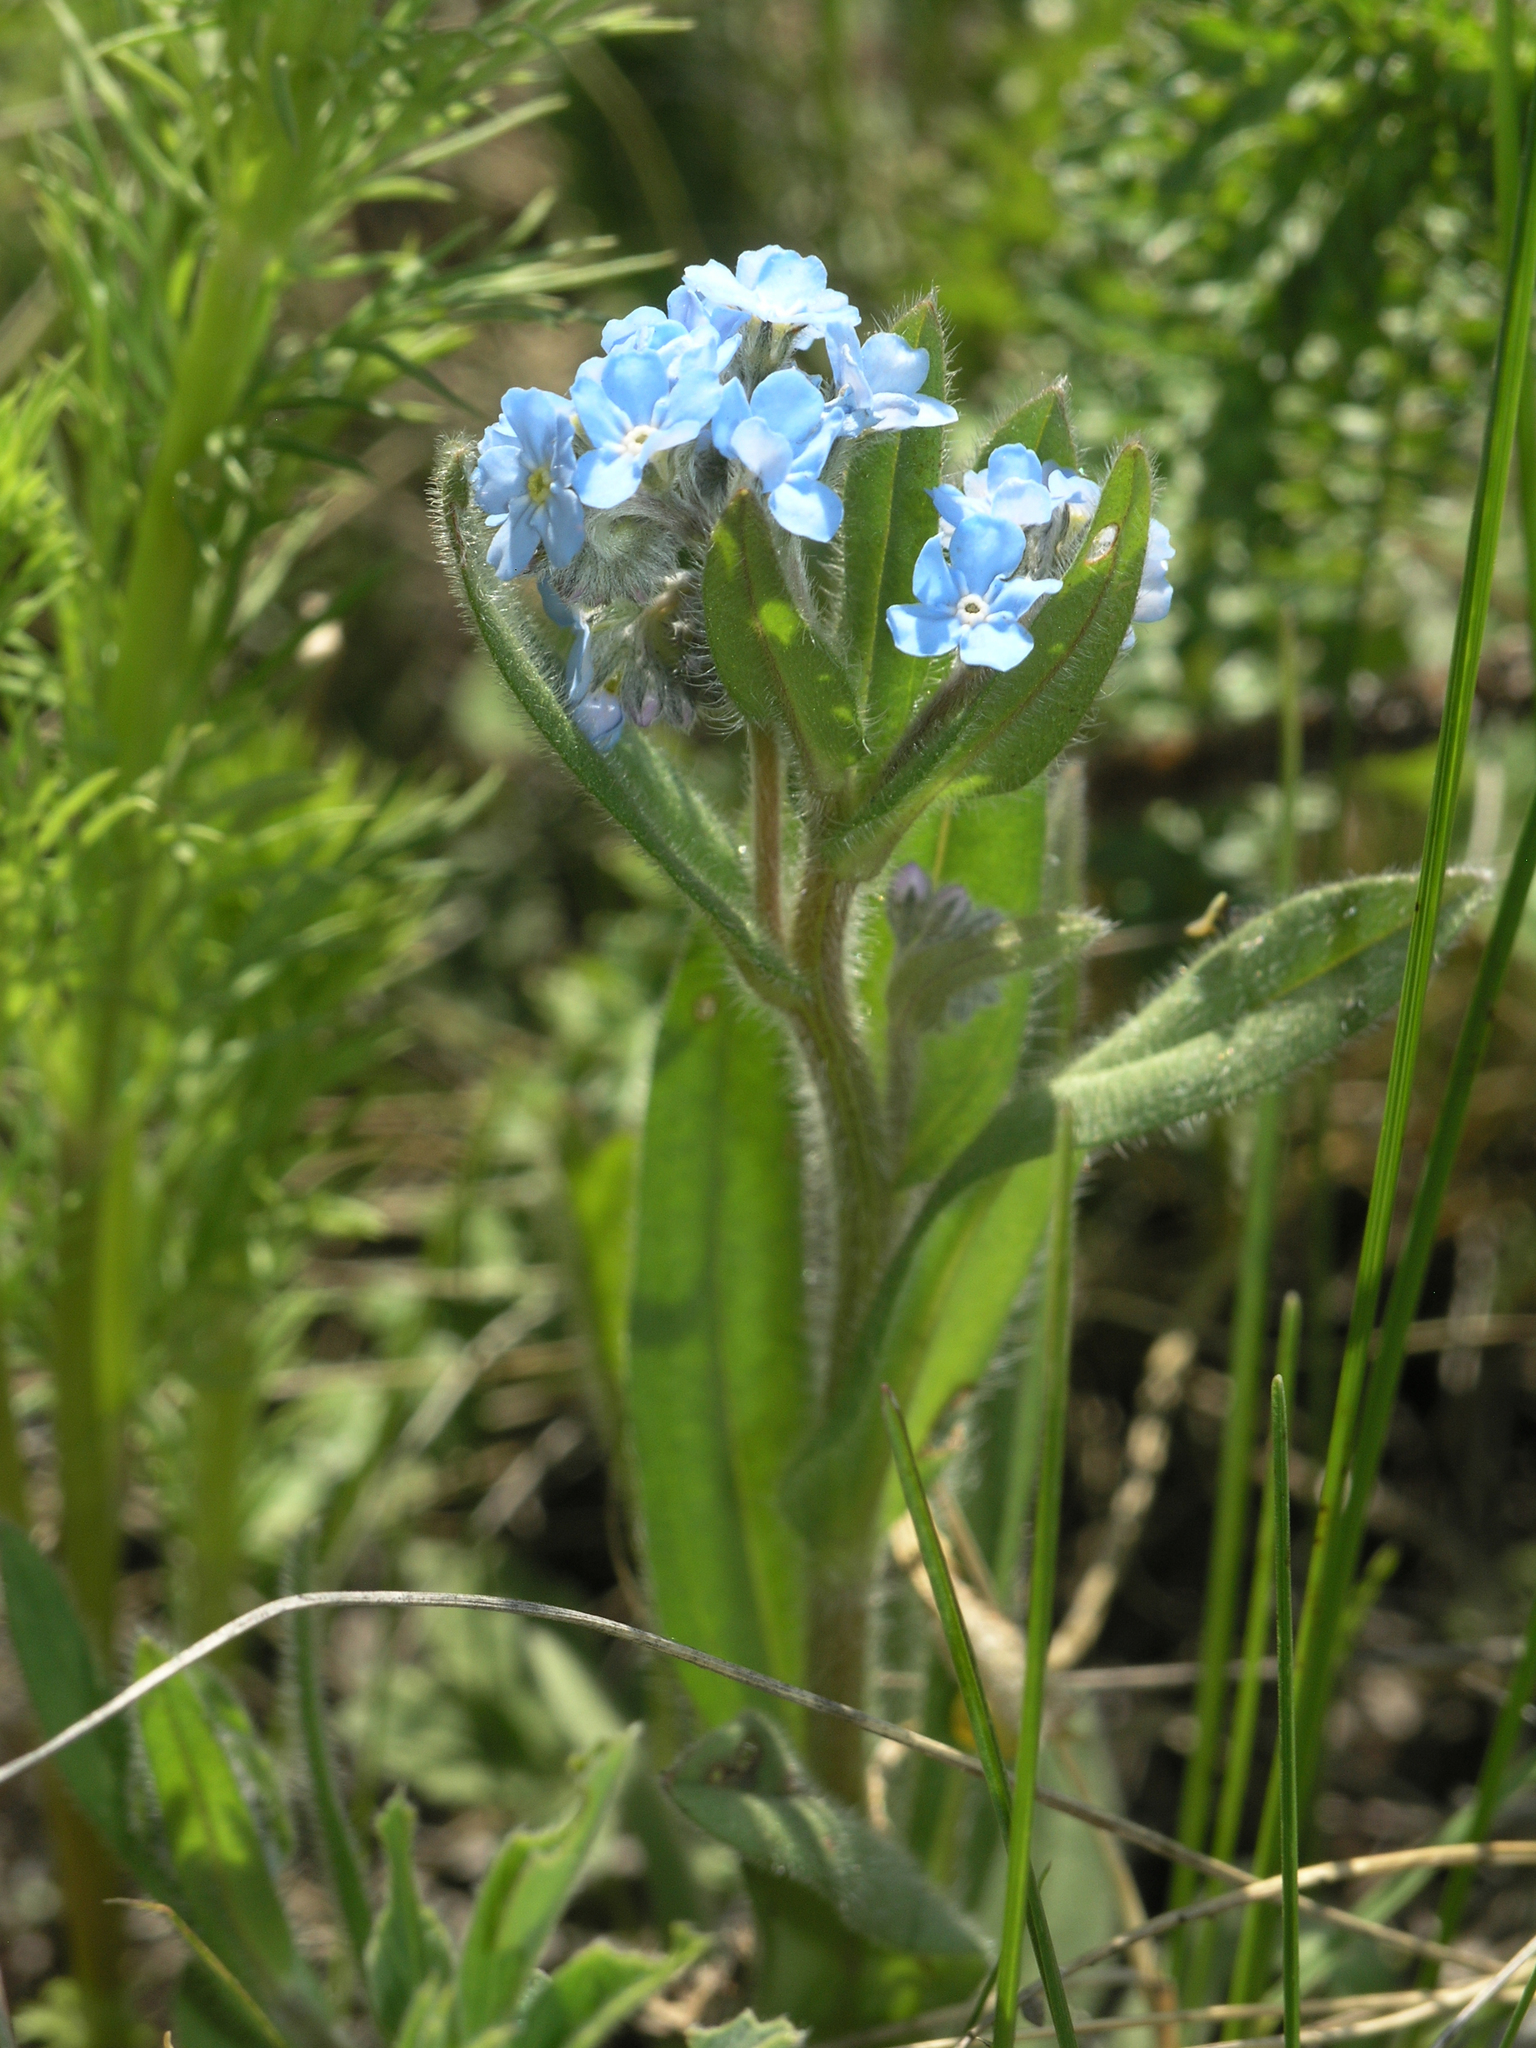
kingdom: Plantae
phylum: Tracheophyta
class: Magnoliopsida
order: Boraginales
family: Boraginaceae
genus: Myosotis
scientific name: Myosotis imitata
